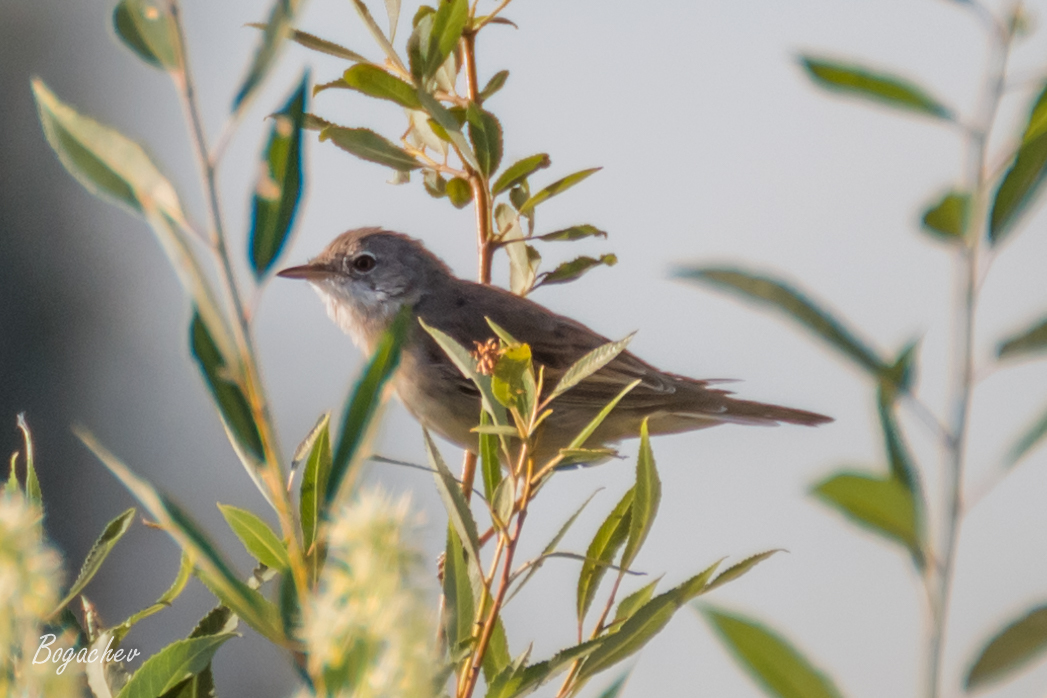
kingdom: Animalia
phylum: Chordata
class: Aves
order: Passeriformes
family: Sylviidae
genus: Sylvia
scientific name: Sylvia communis
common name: Common whitethroat
